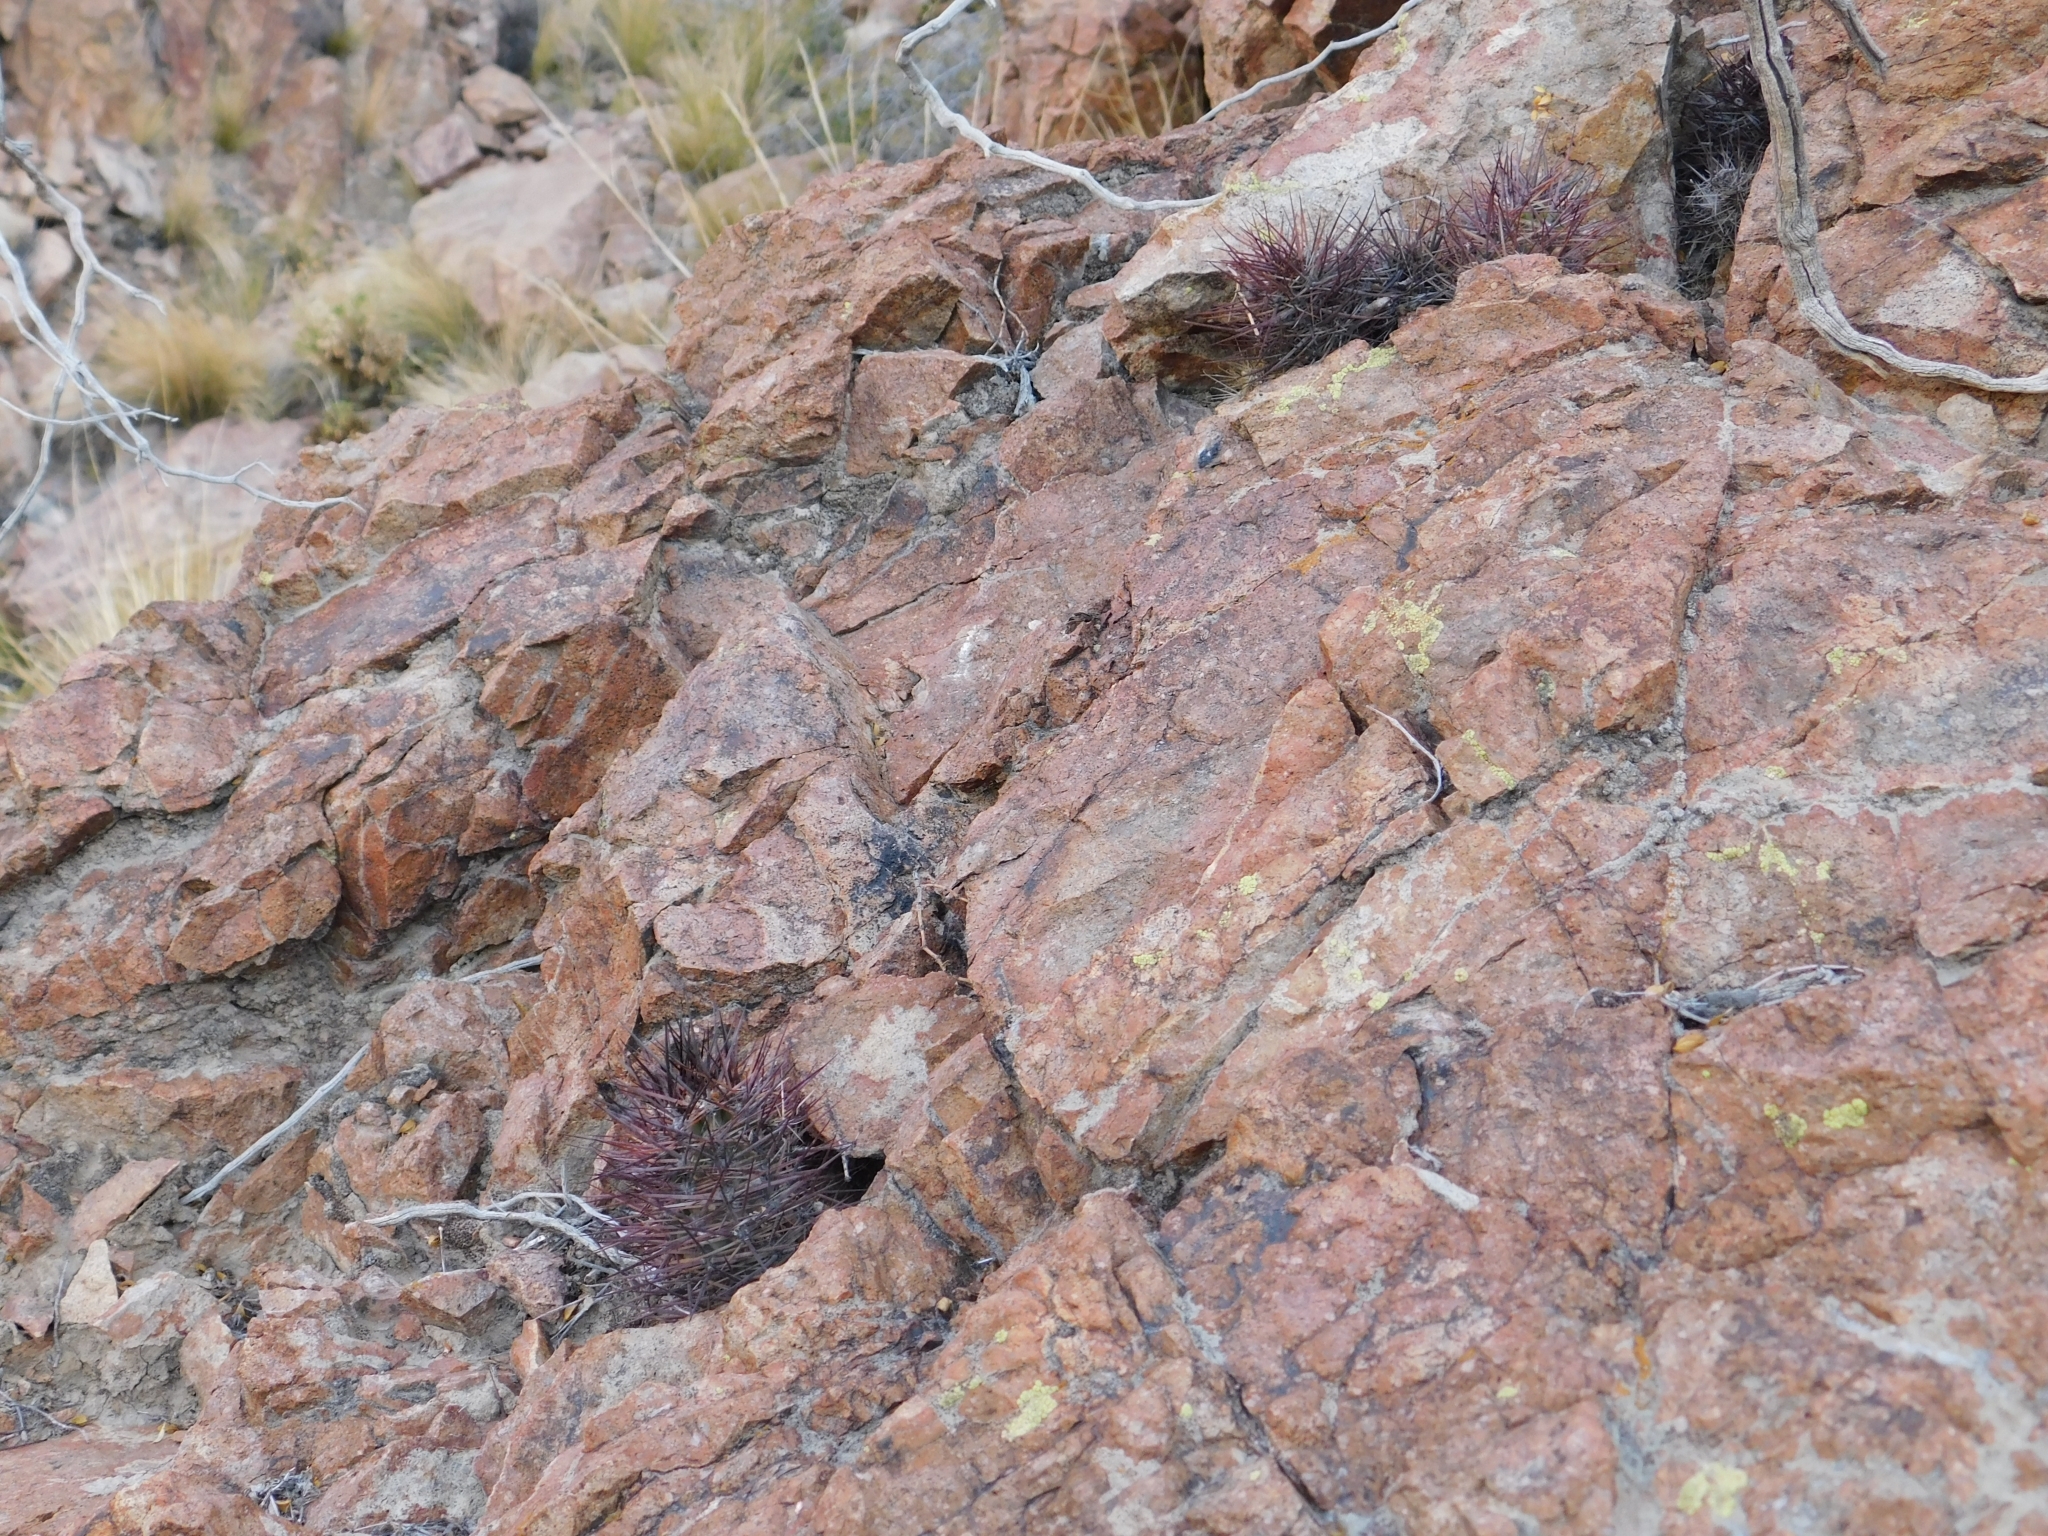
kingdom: Plantae
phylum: Tracheophyta
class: Magnoliopsida
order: Caryophyllales
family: Cactaceae
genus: Austrocactus
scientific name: Austrocactus bertinii
